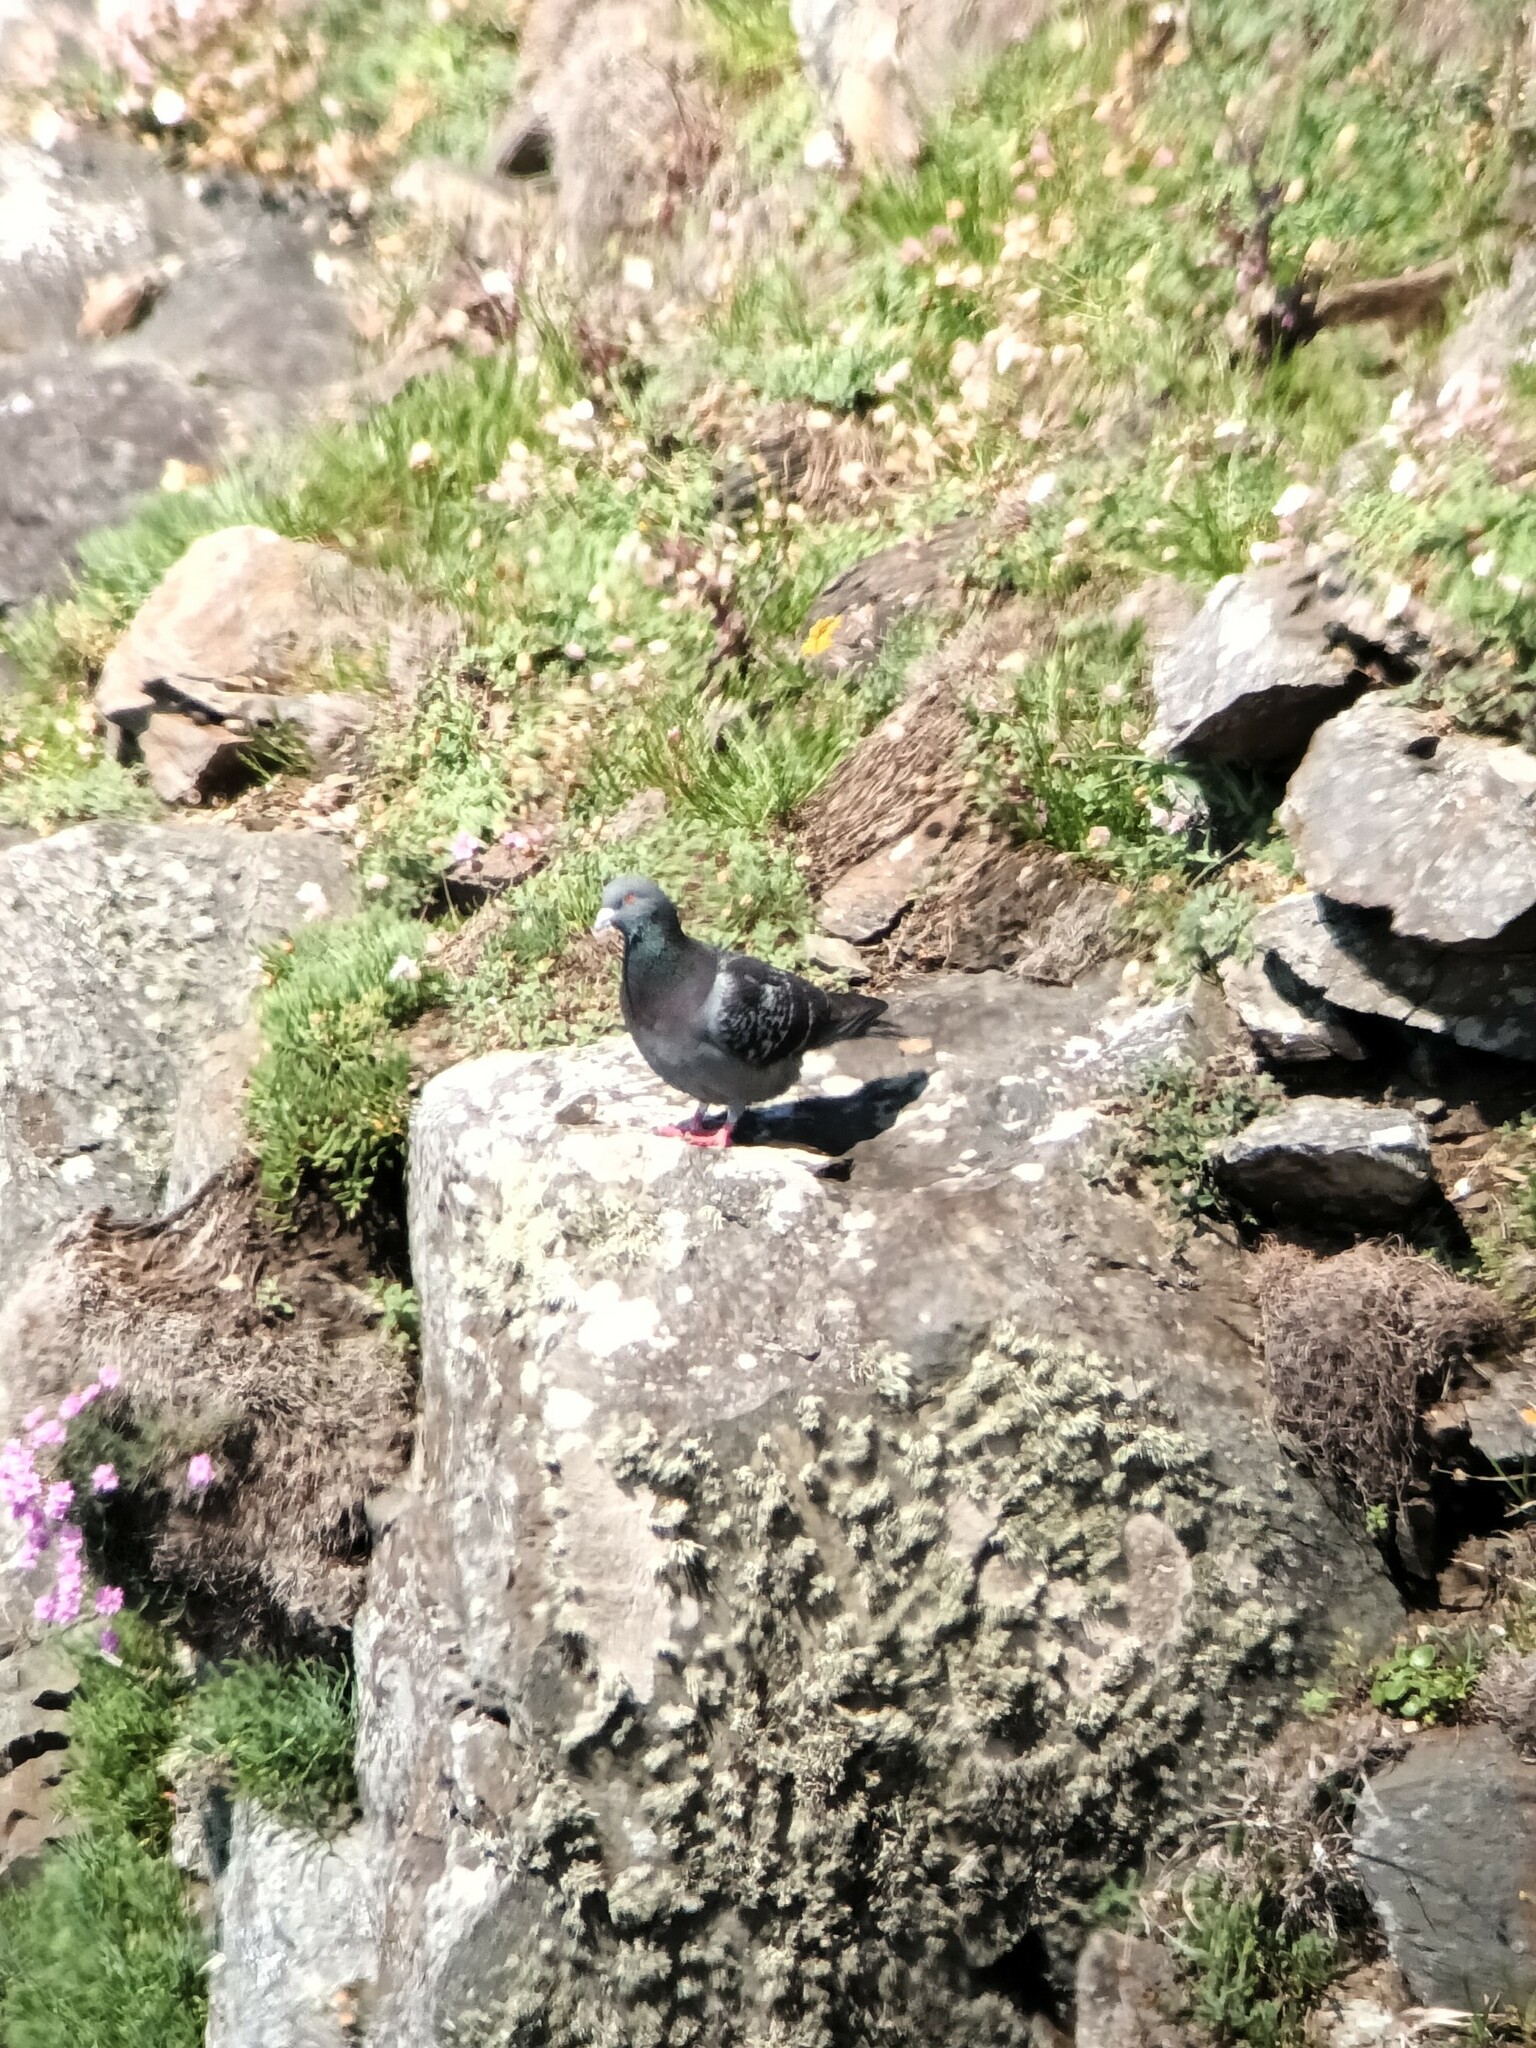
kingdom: Animalia
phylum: Chordata
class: Aves
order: Columbiformes
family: Columbidae
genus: Columba
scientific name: Columba livia
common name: Rock pigeon
